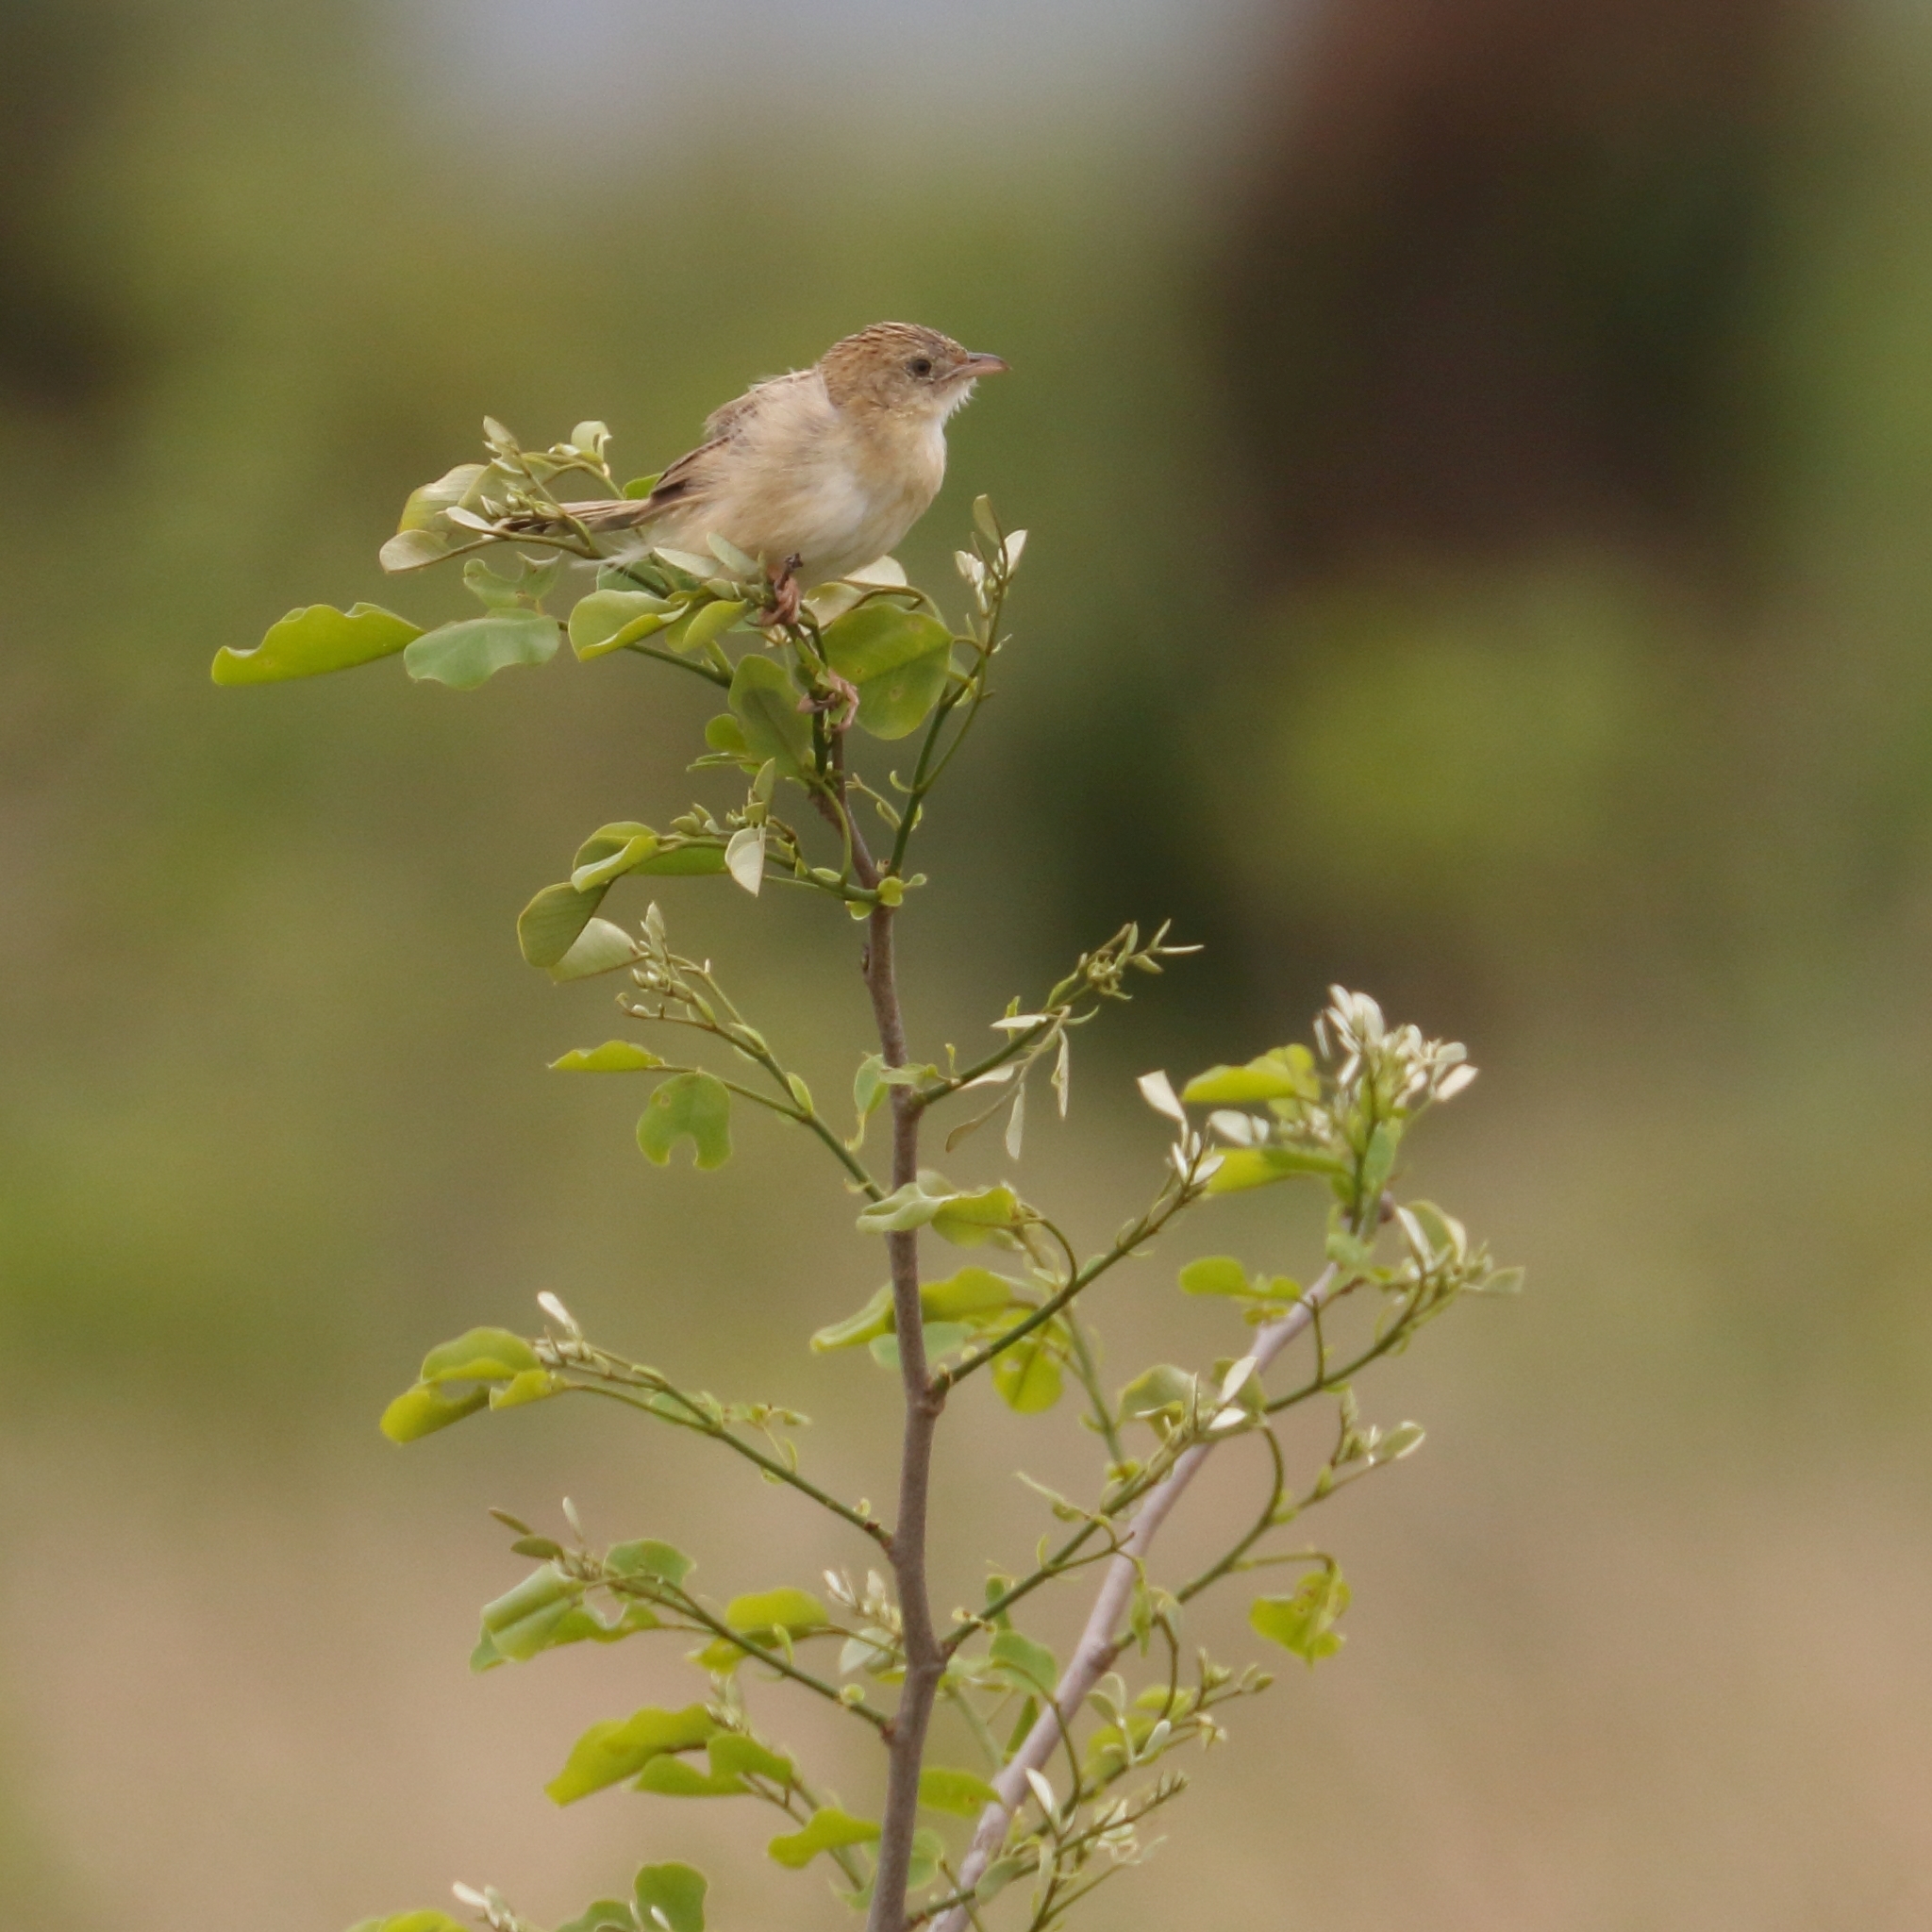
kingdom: Animalia
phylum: Chordata
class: Aves
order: Passeriformes
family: Cisticolidae
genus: Cisticola
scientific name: Cisticola natalensis
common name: Croaking cisticola
